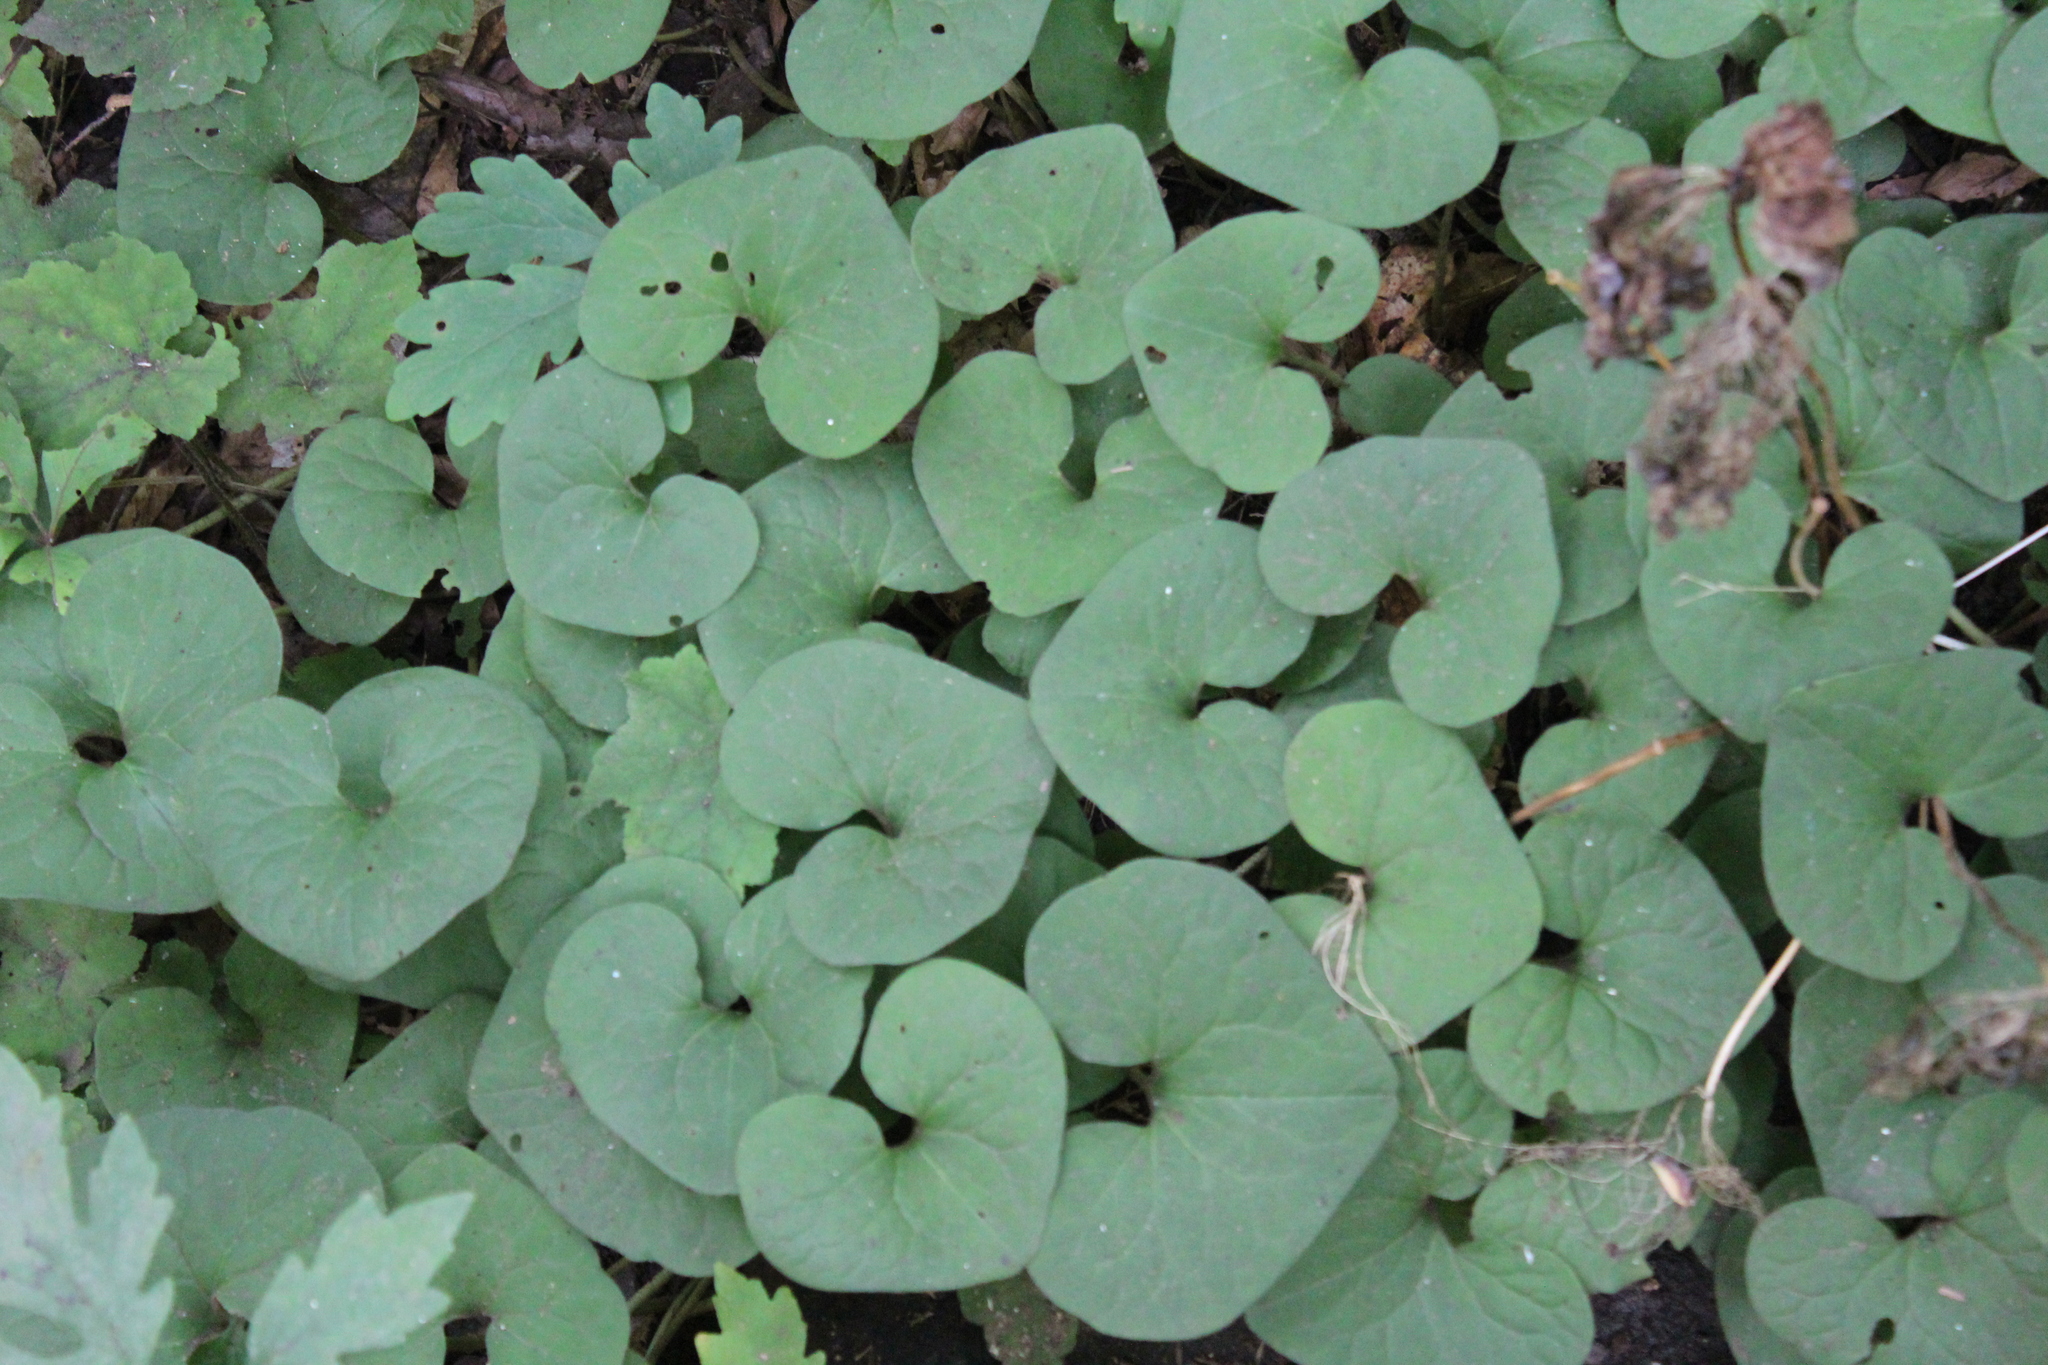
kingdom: Plantae
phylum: Tracheophyta
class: Magnoliopsida
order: Piperales
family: Aristolochiaceae
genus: Asarum
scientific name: Asarum canadense
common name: Wild ginger
